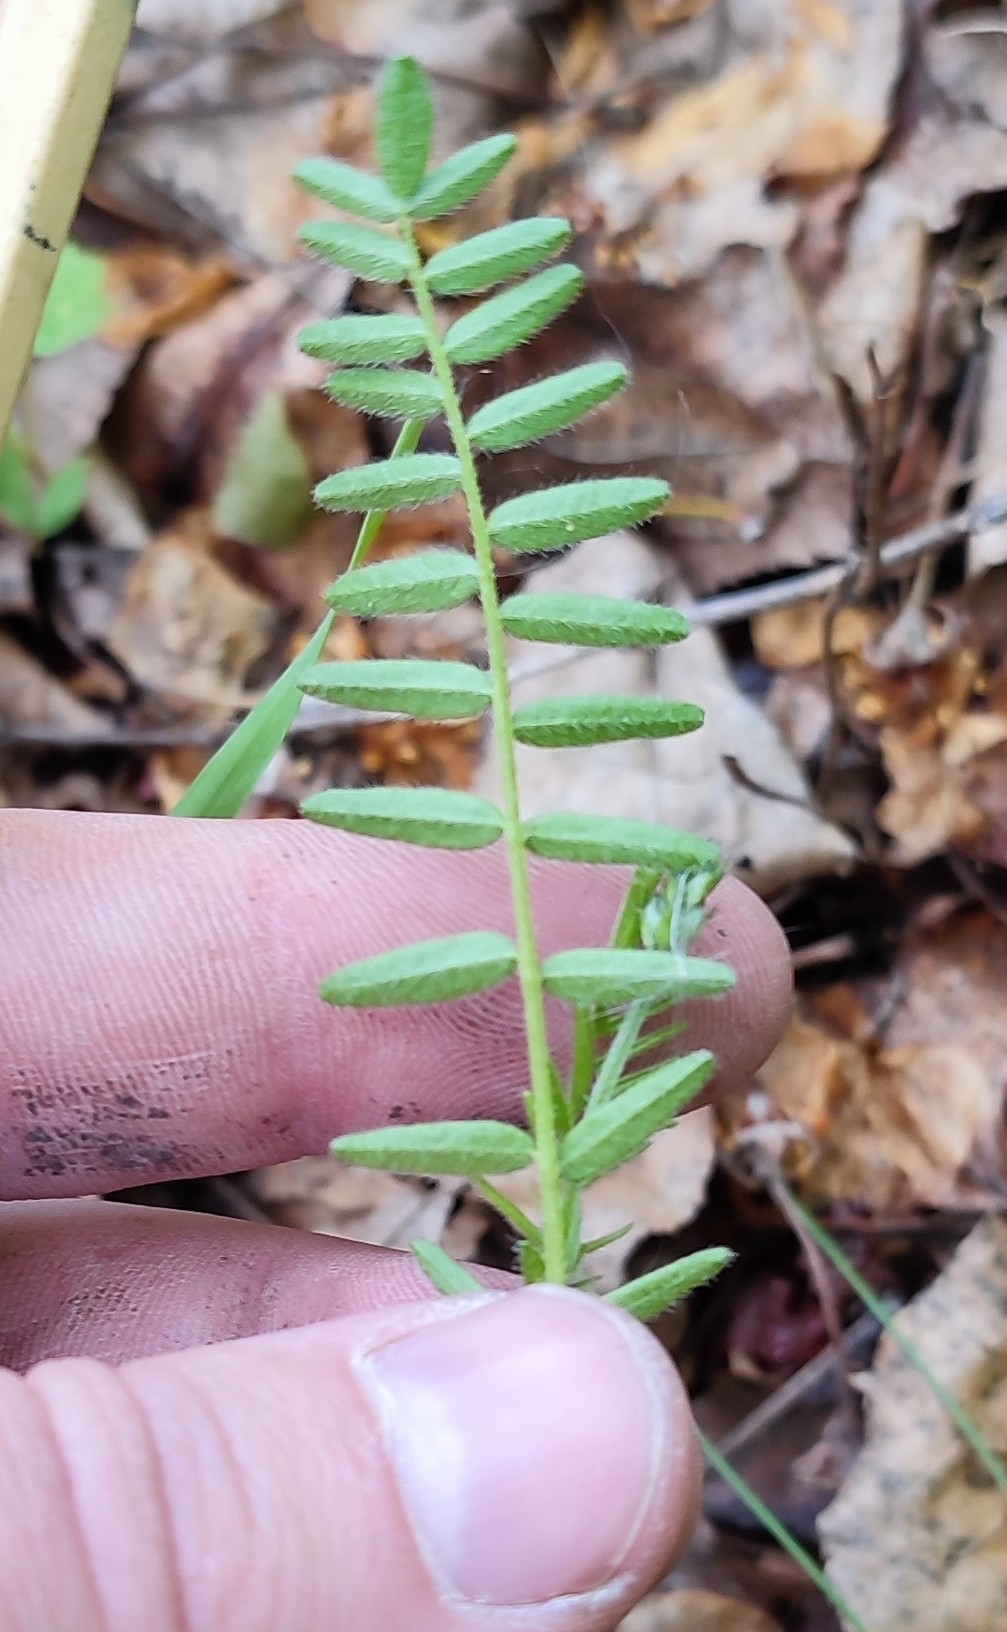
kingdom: Plantae
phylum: Tracheophyta
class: Magnoliopsida
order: Fabales
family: Fabaceae
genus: Astragalus
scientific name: Astragalus danicus
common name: Purple milk-vetch
